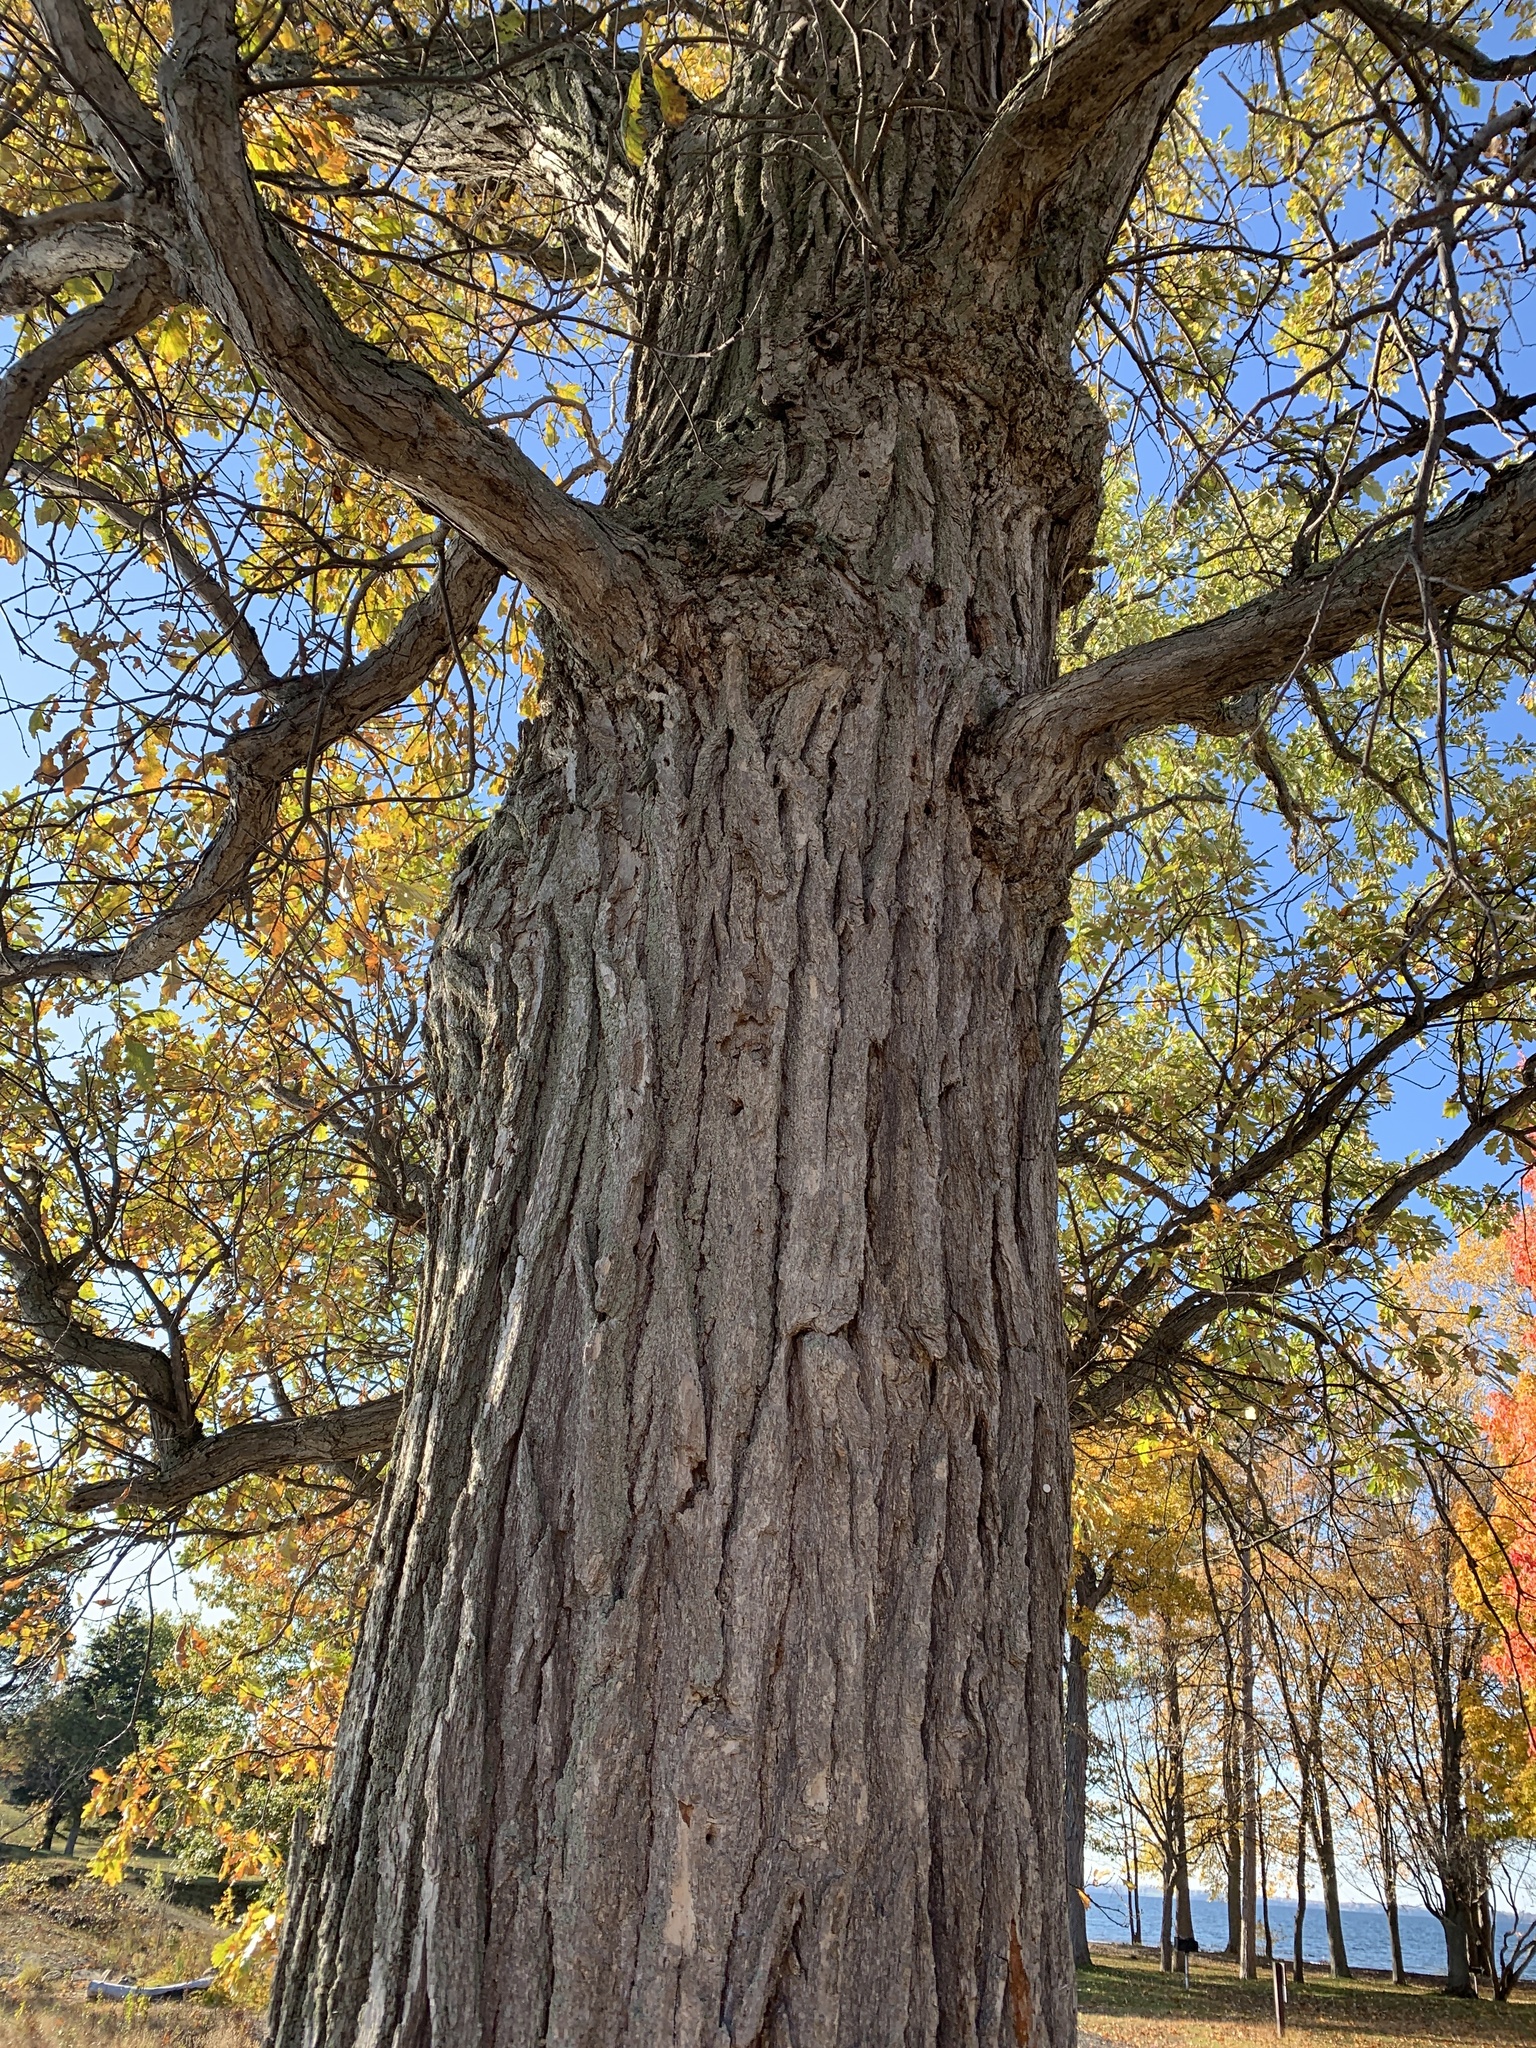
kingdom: Plantae
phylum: Tracheophyta
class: Magnoliopsida
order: Fagales
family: Fagaceae
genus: Quercus
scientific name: Quercus bicolor
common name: Swamp white oak
